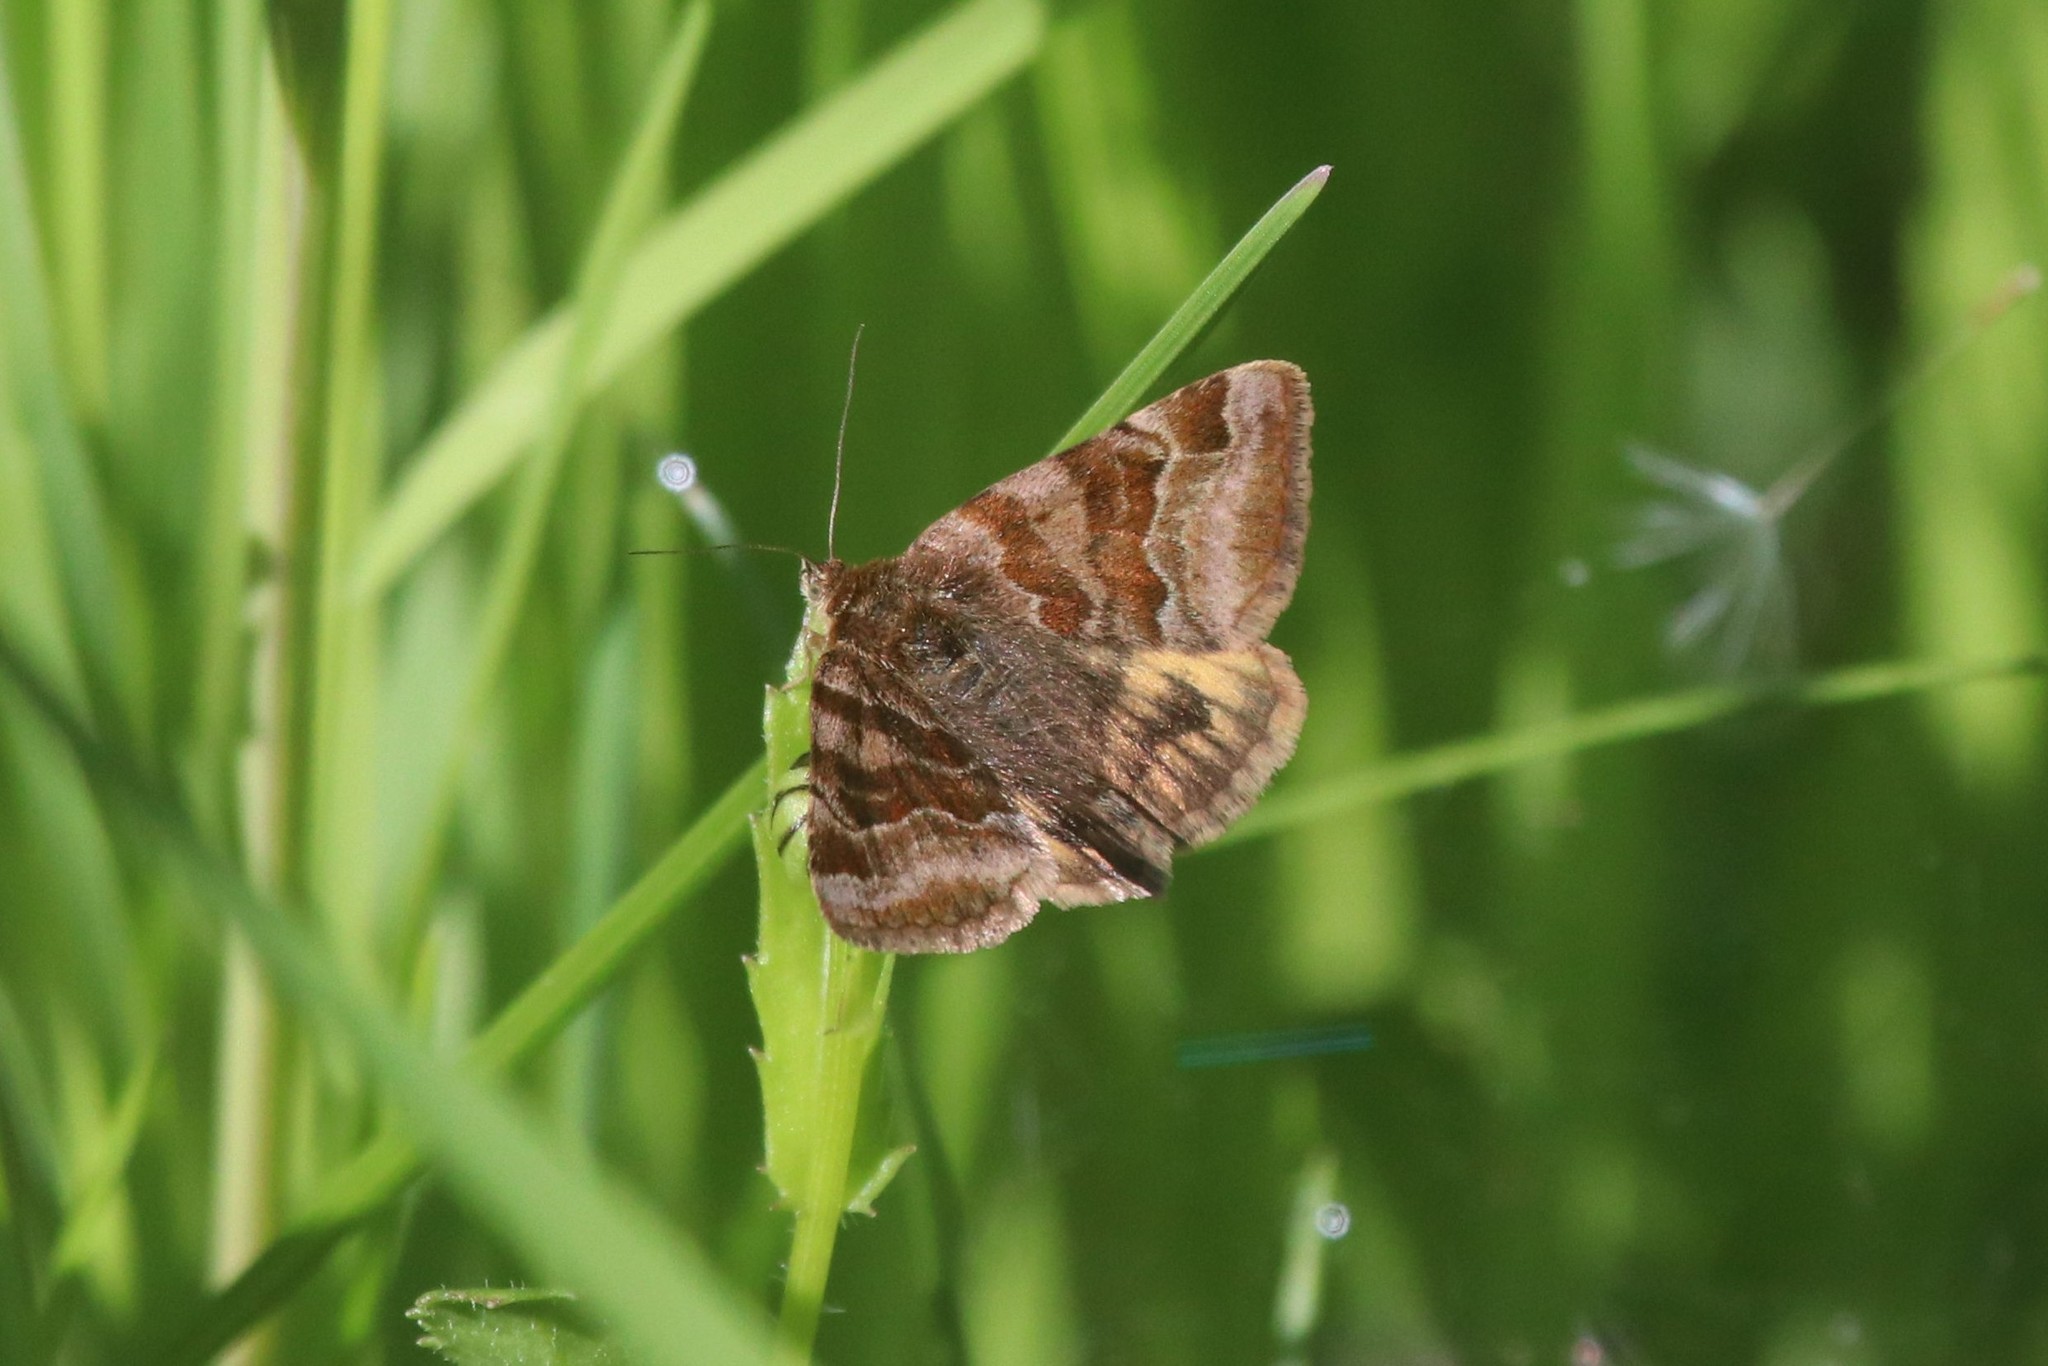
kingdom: Animalia
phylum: Arthropoda
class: Insecta
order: Lepidoptera
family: Erebidae
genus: Euclidia
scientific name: Euclidia glyphica
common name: Burnet companion
